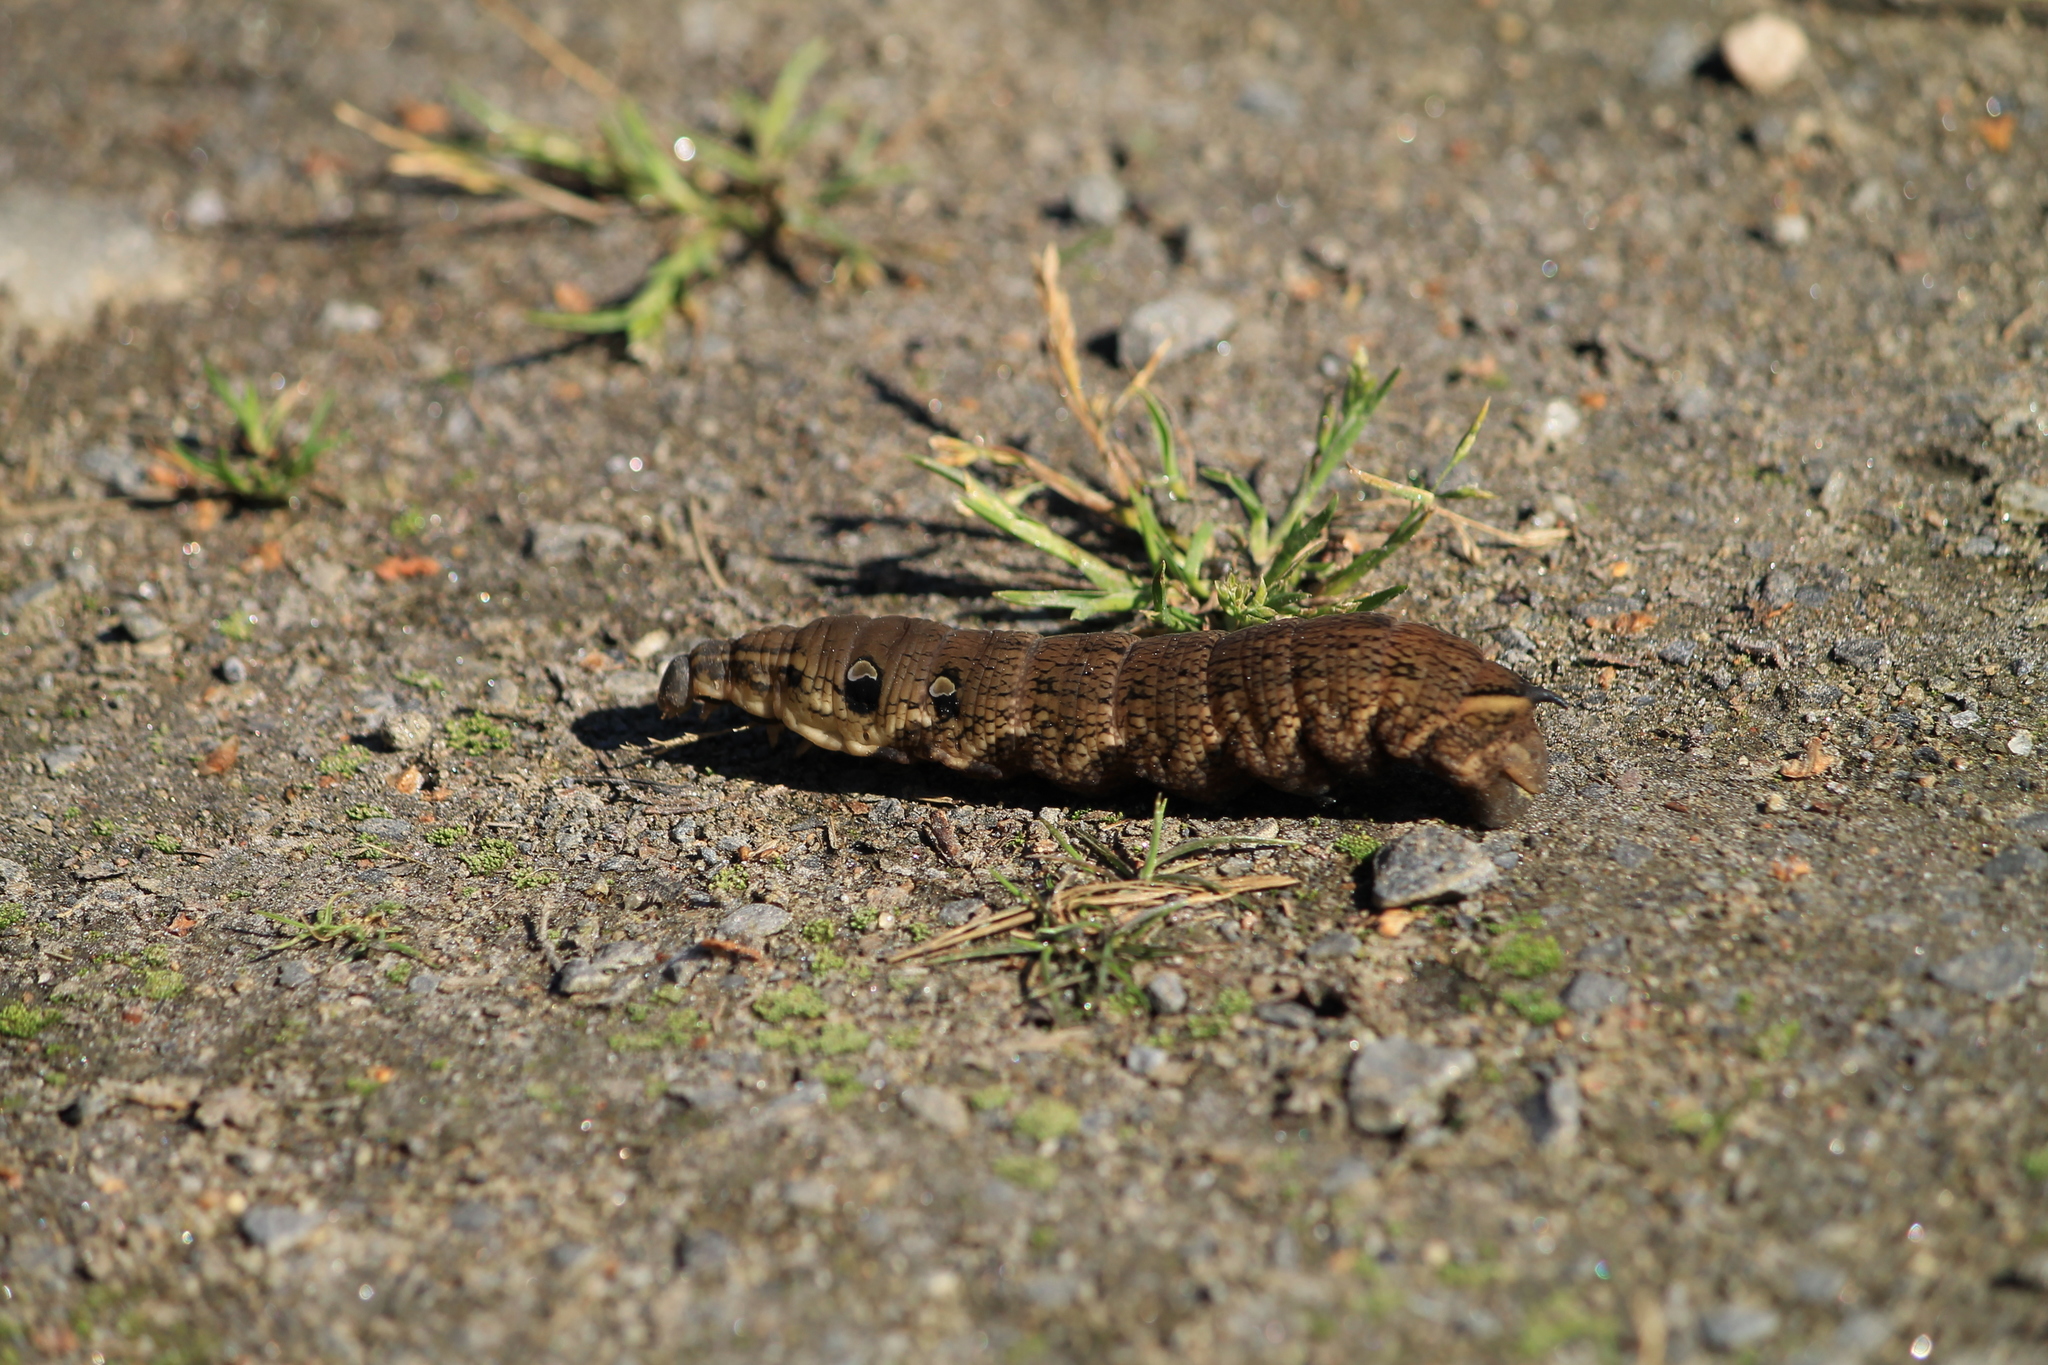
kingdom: Animalia
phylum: Arthropoda
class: Insecta
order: Lepidoptera
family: Sphingidae
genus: Deilephila
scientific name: Deilephila elpenor
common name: Elephant hawk-moth
